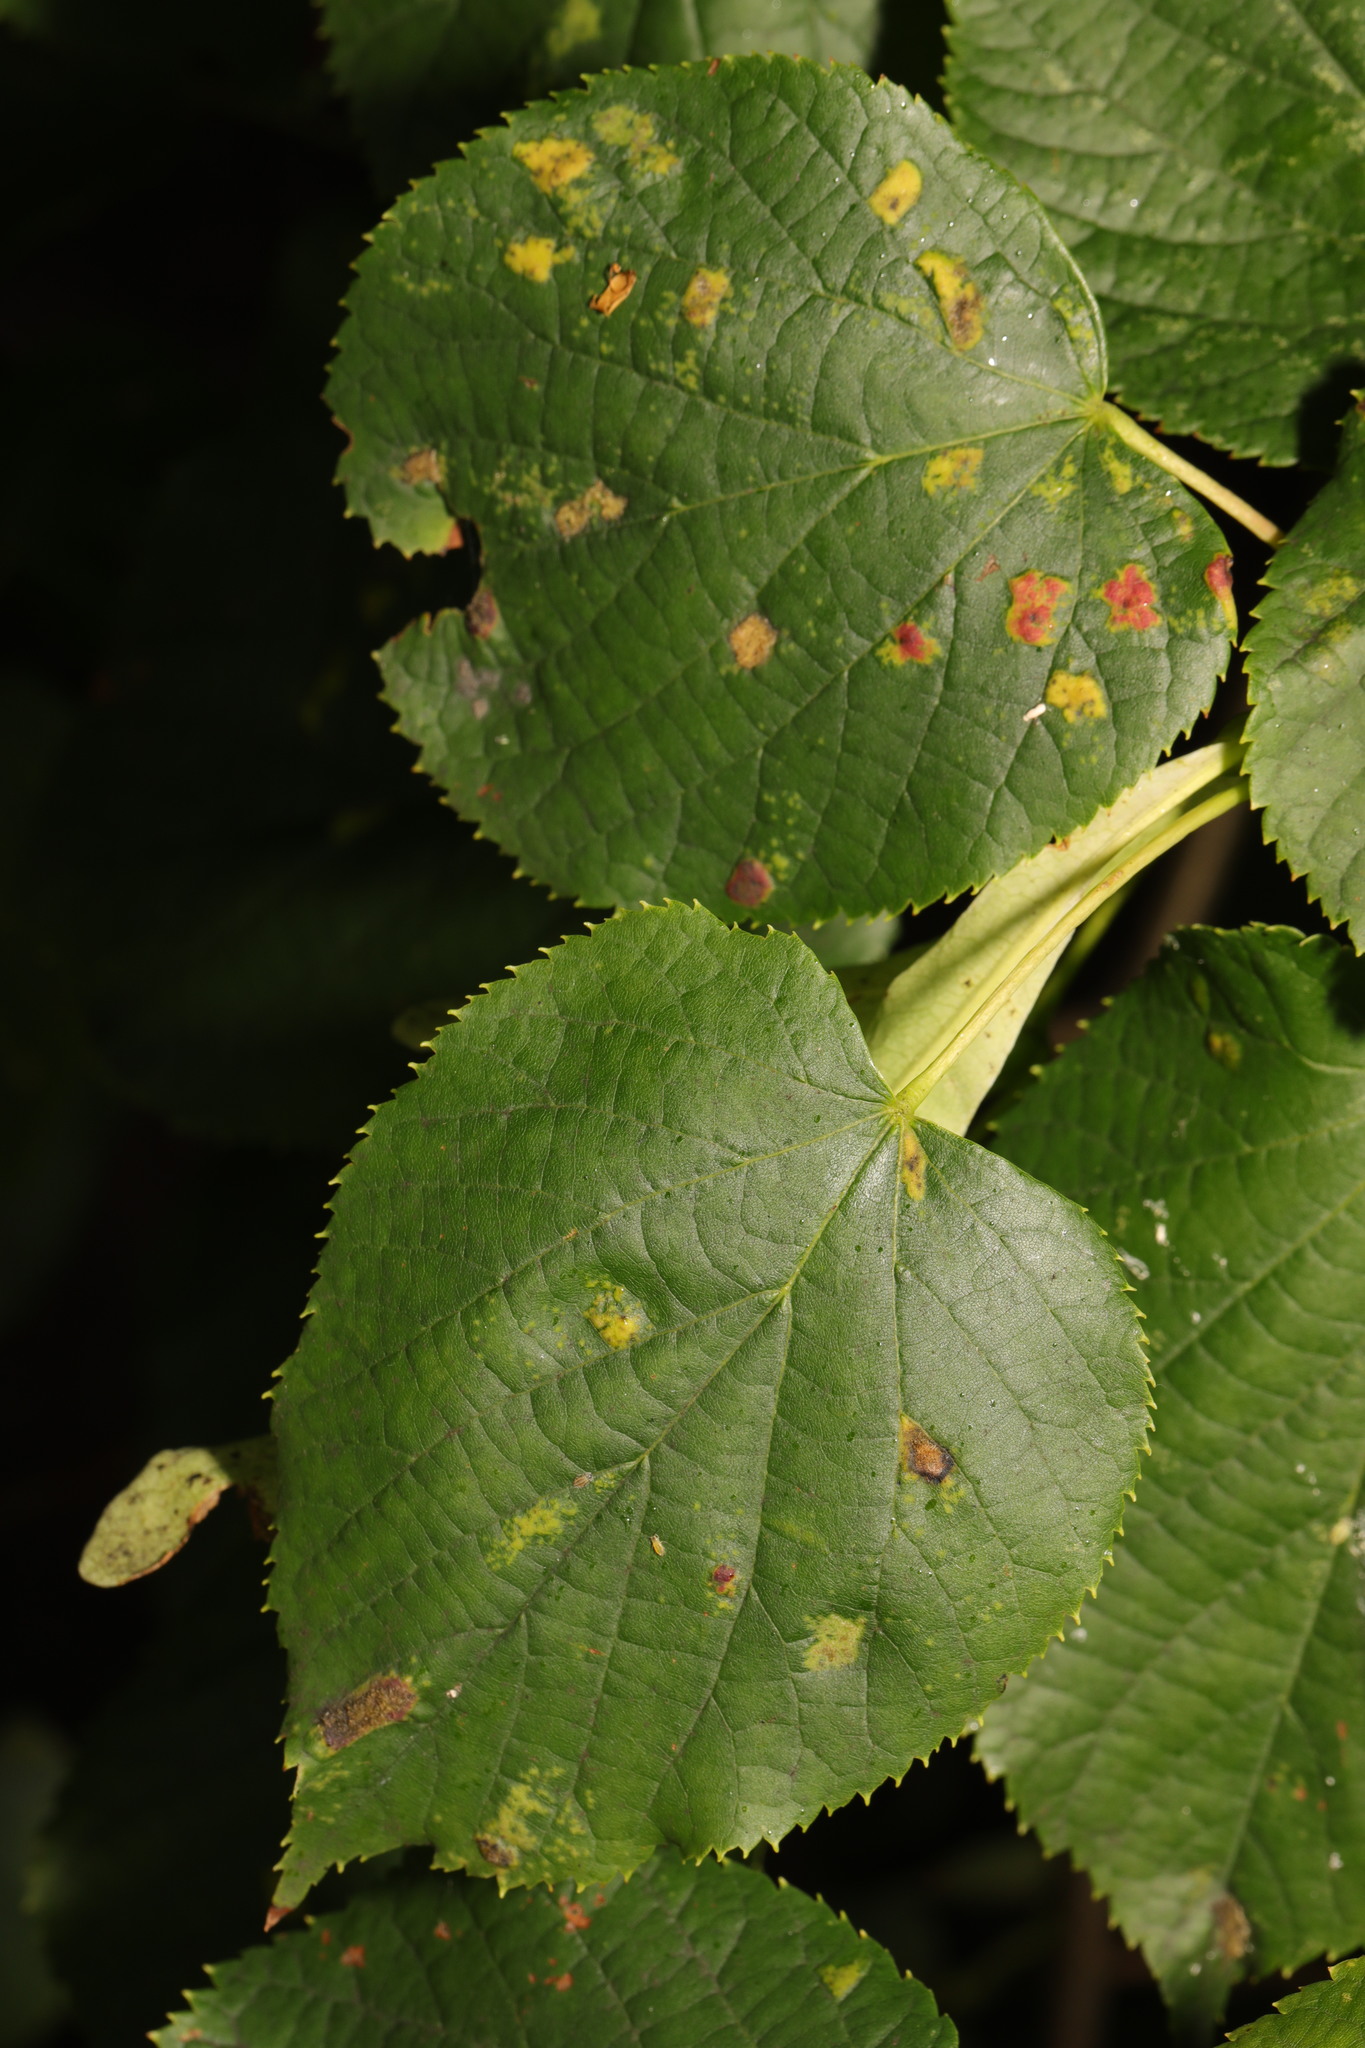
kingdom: Plantae
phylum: Tracheophyta
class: Magnoliopsida
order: Malvales
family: Malvaceae
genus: Tilia
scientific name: Tilia europaea
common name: European linden
